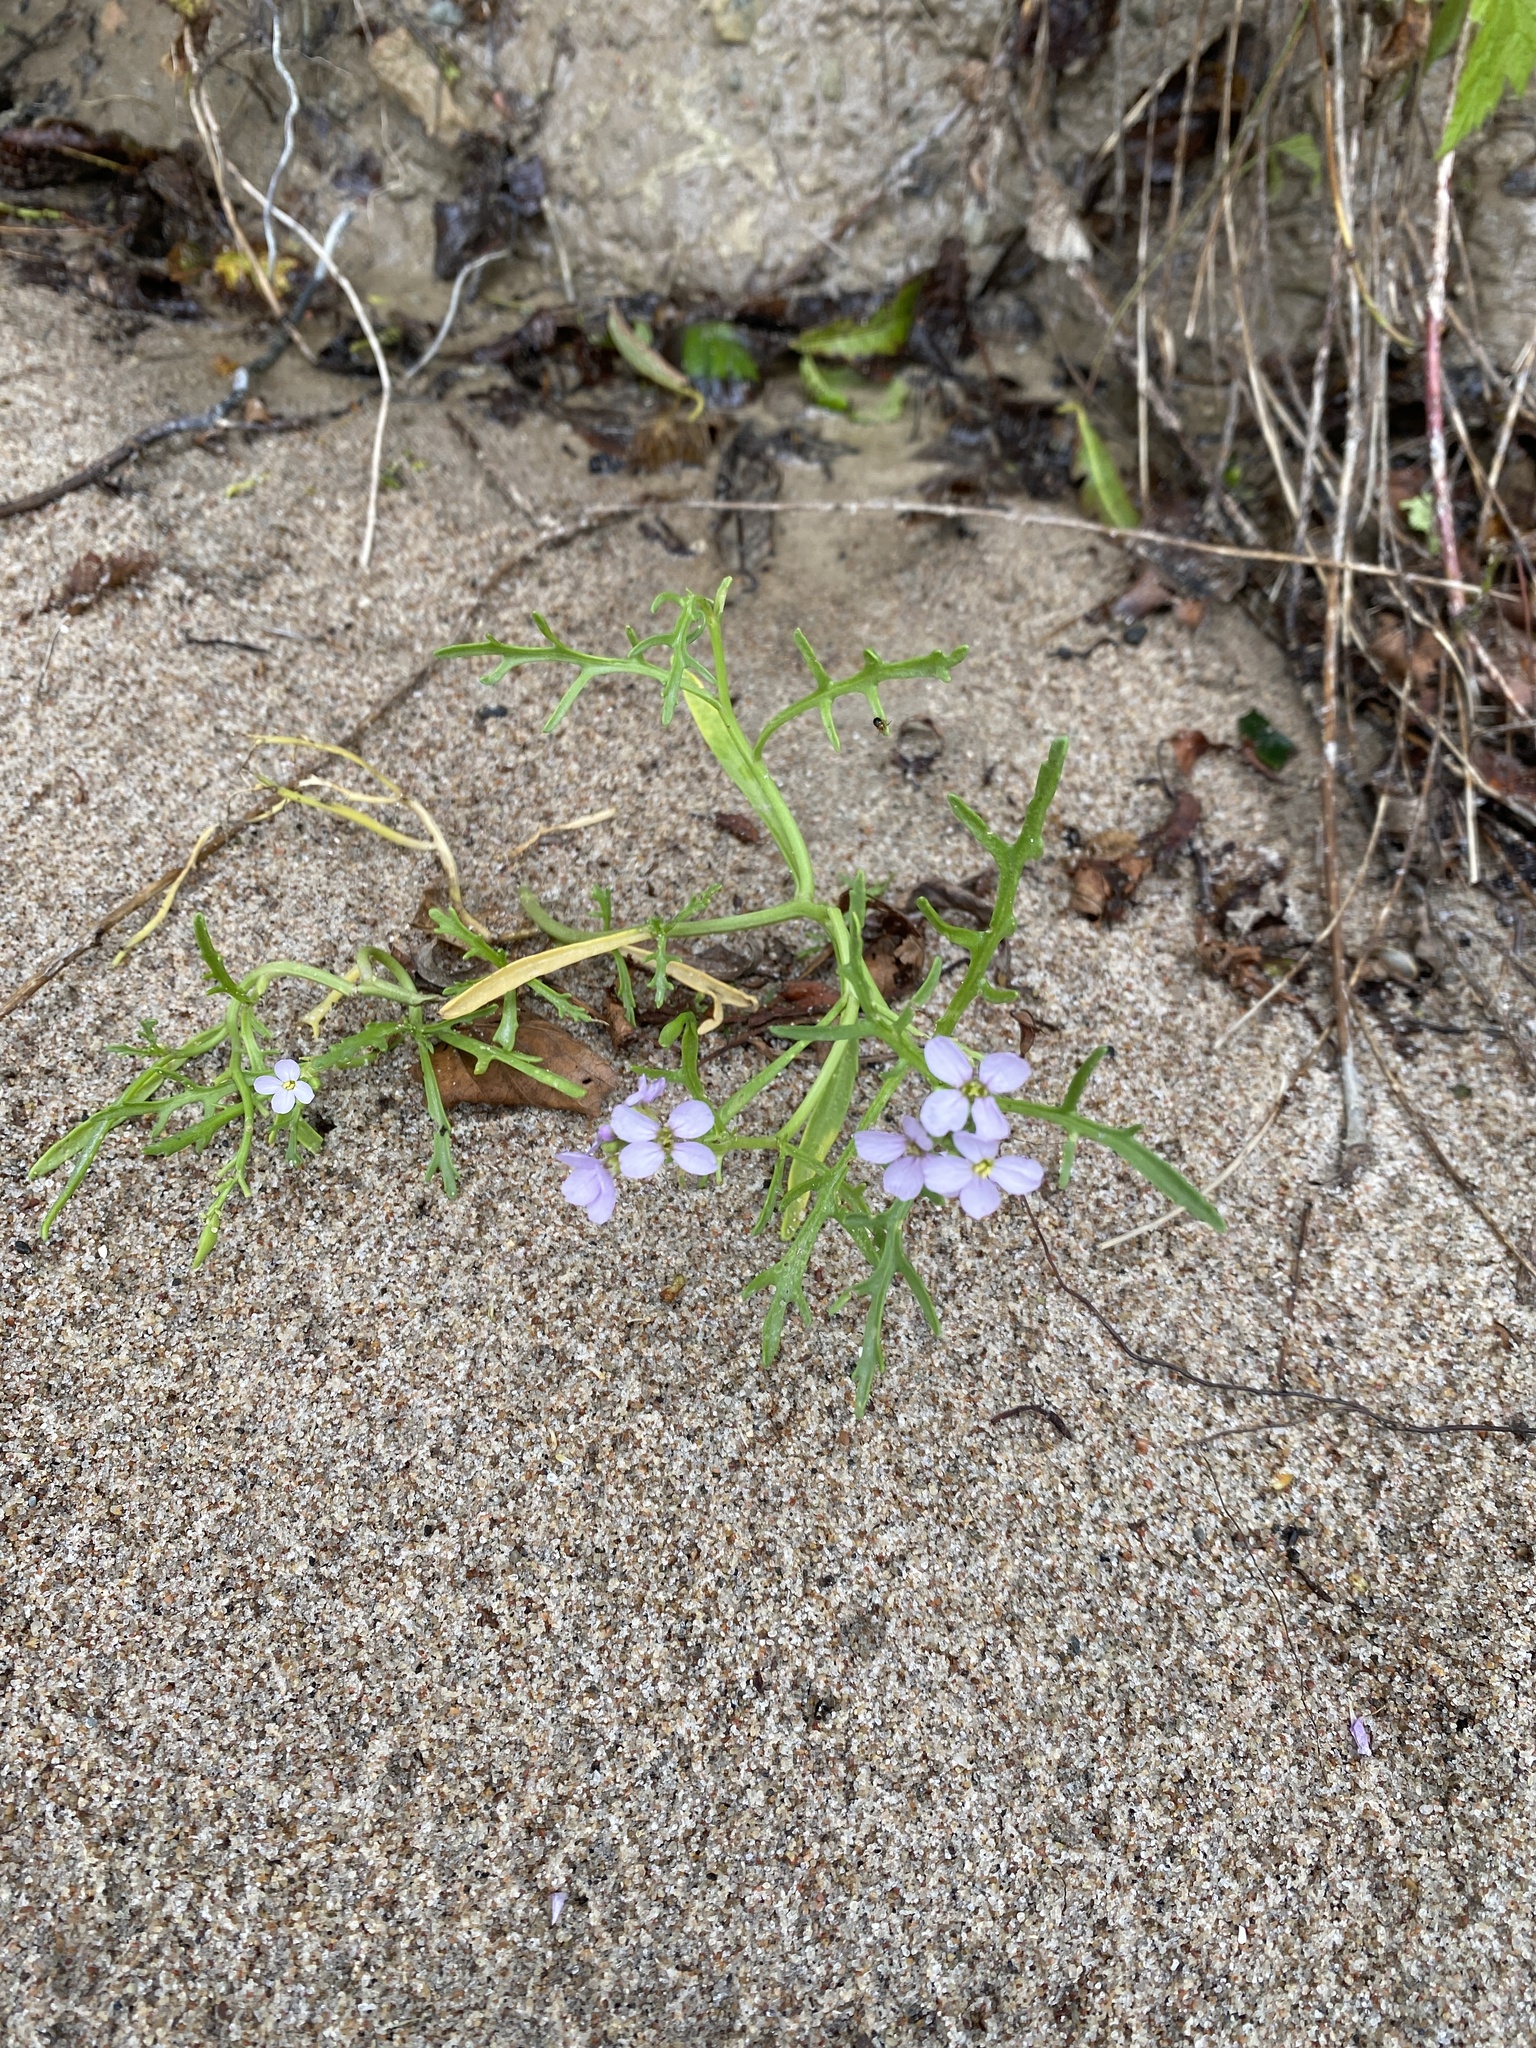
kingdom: Plantae
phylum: Tracheophyta
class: Magnoliopsida
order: Brassicales
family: Brassicaceae
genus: Cakile
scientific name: Cakile maritima
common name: Sea rocket
